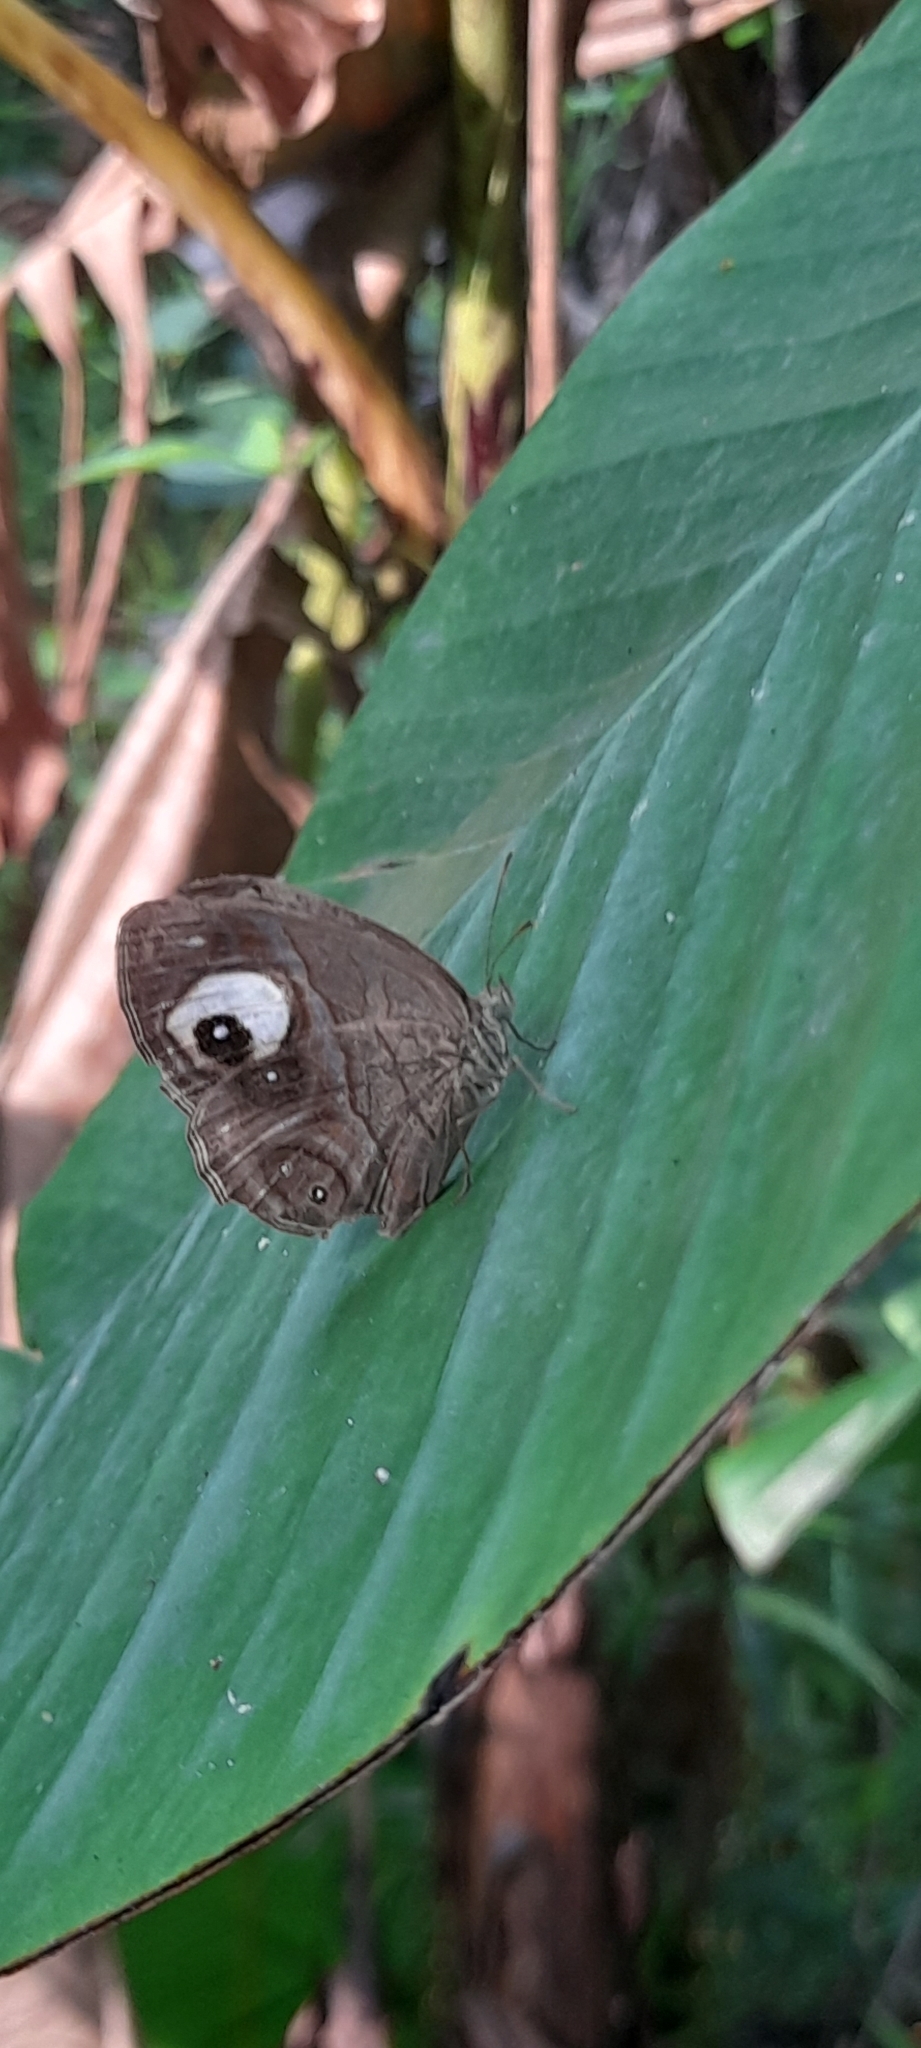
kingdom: Animalia
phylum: Arthropoda
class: Insecta
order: Lepidoptera
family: Nymphalidae
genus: Mycalesis
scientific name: Mycalesis patnia
